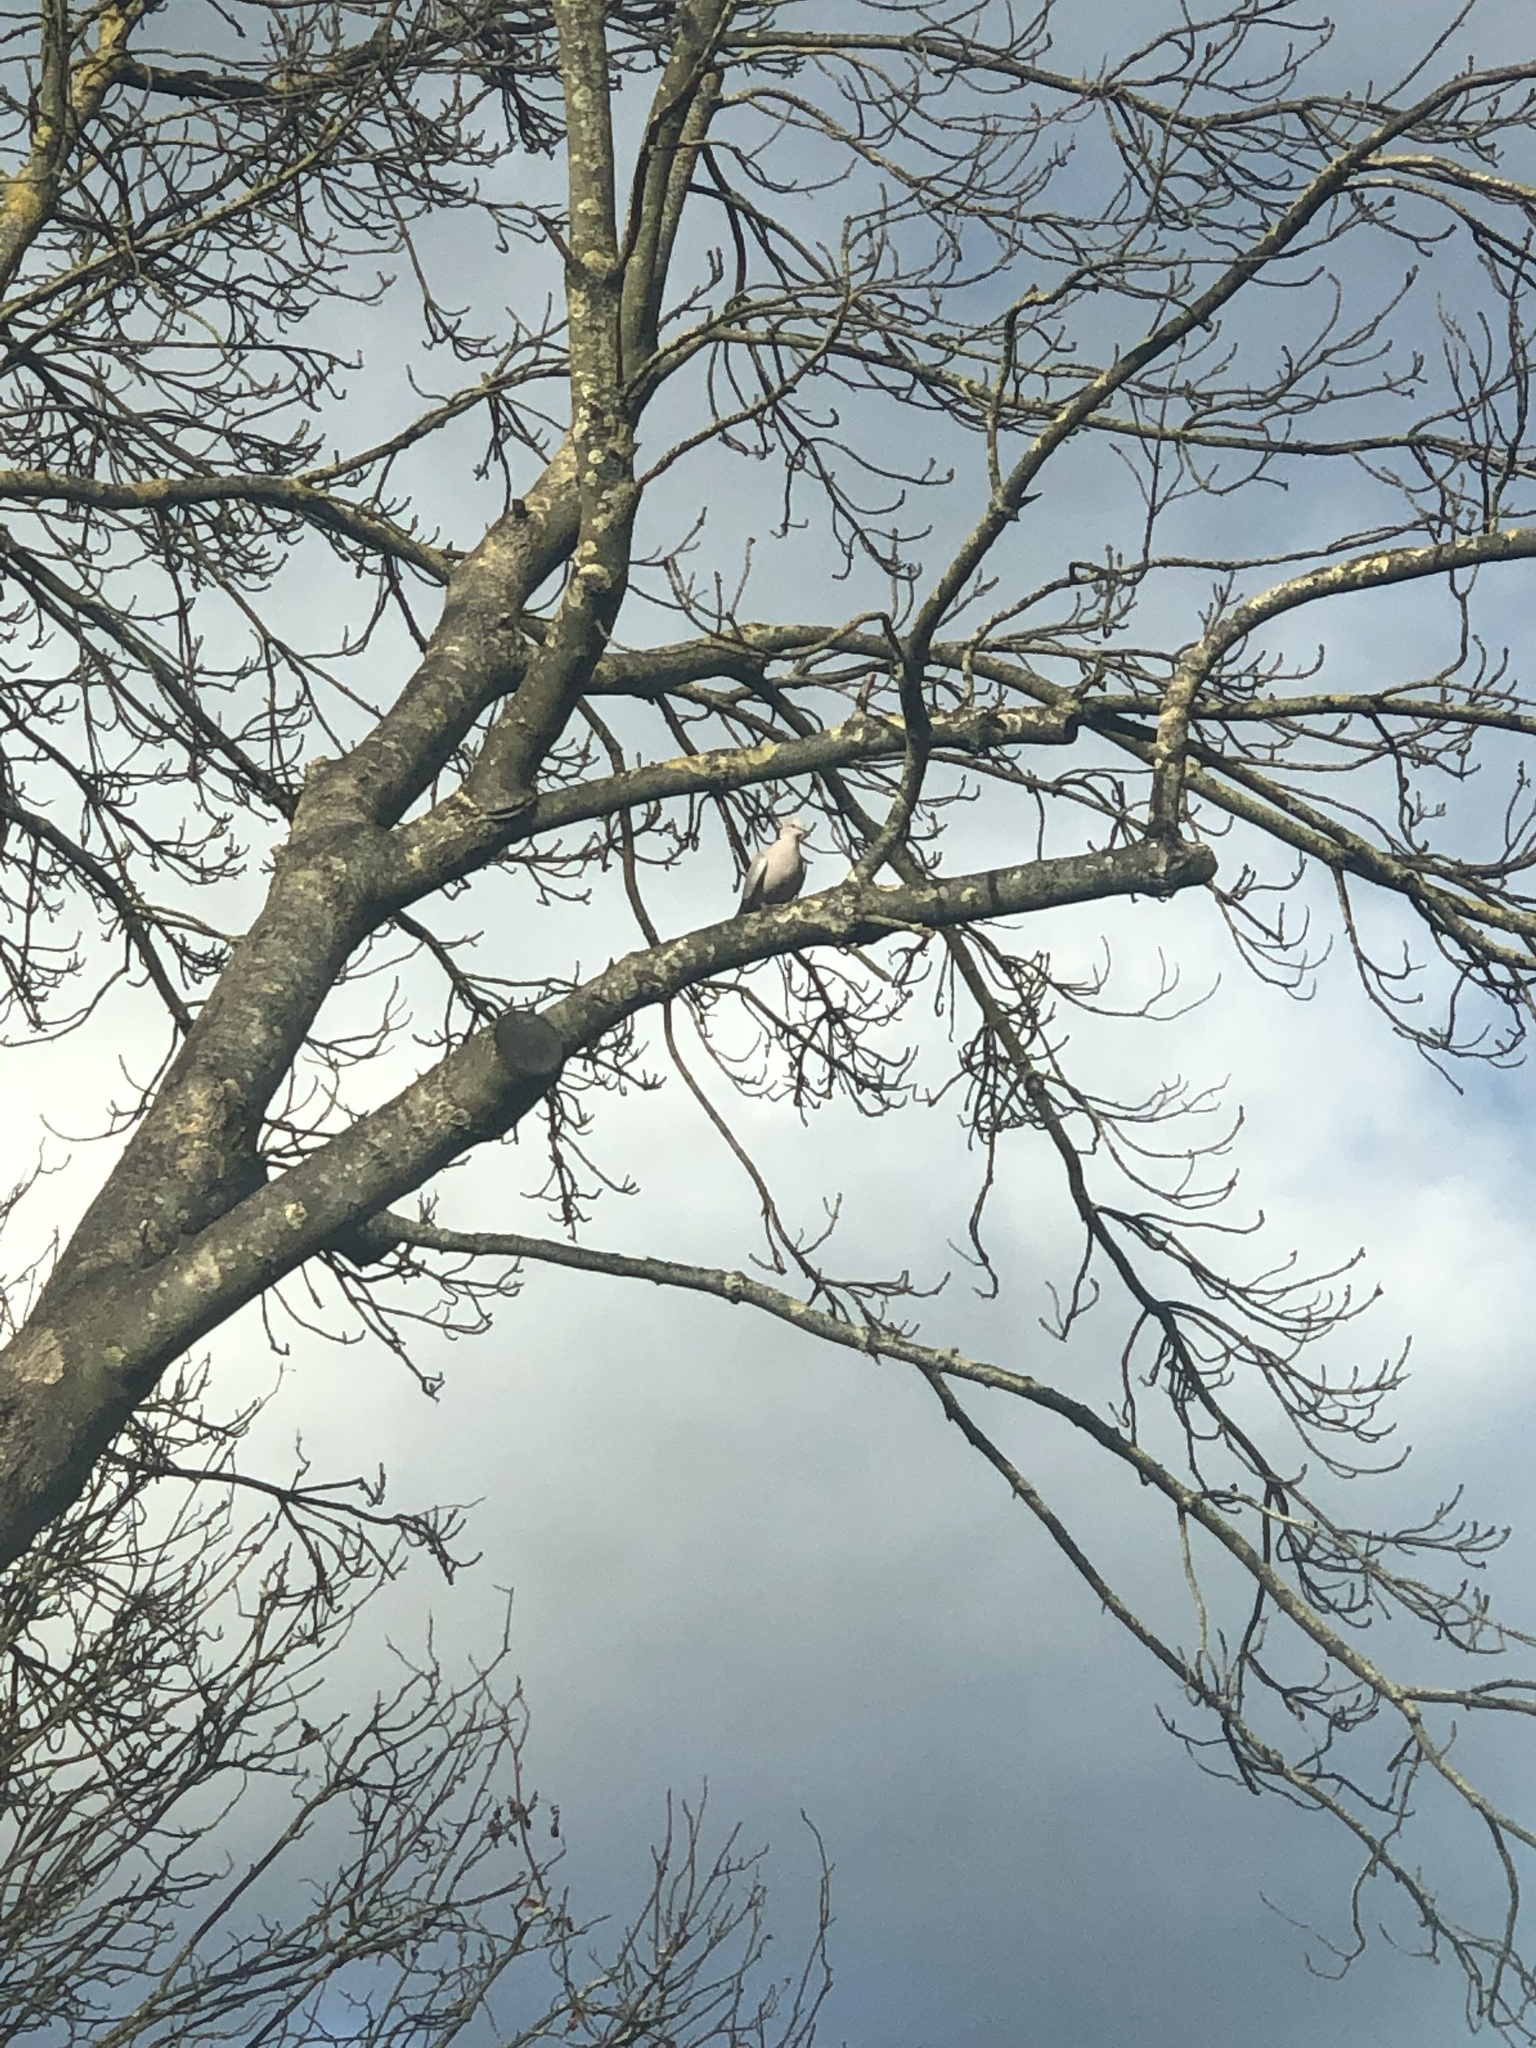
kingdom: Animalia
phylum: Chordata
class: Aves
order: Columbiformes
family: Columbidae
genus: Streptopelia
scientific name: Streptopelia decaocto
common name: Eurasian collared dove
